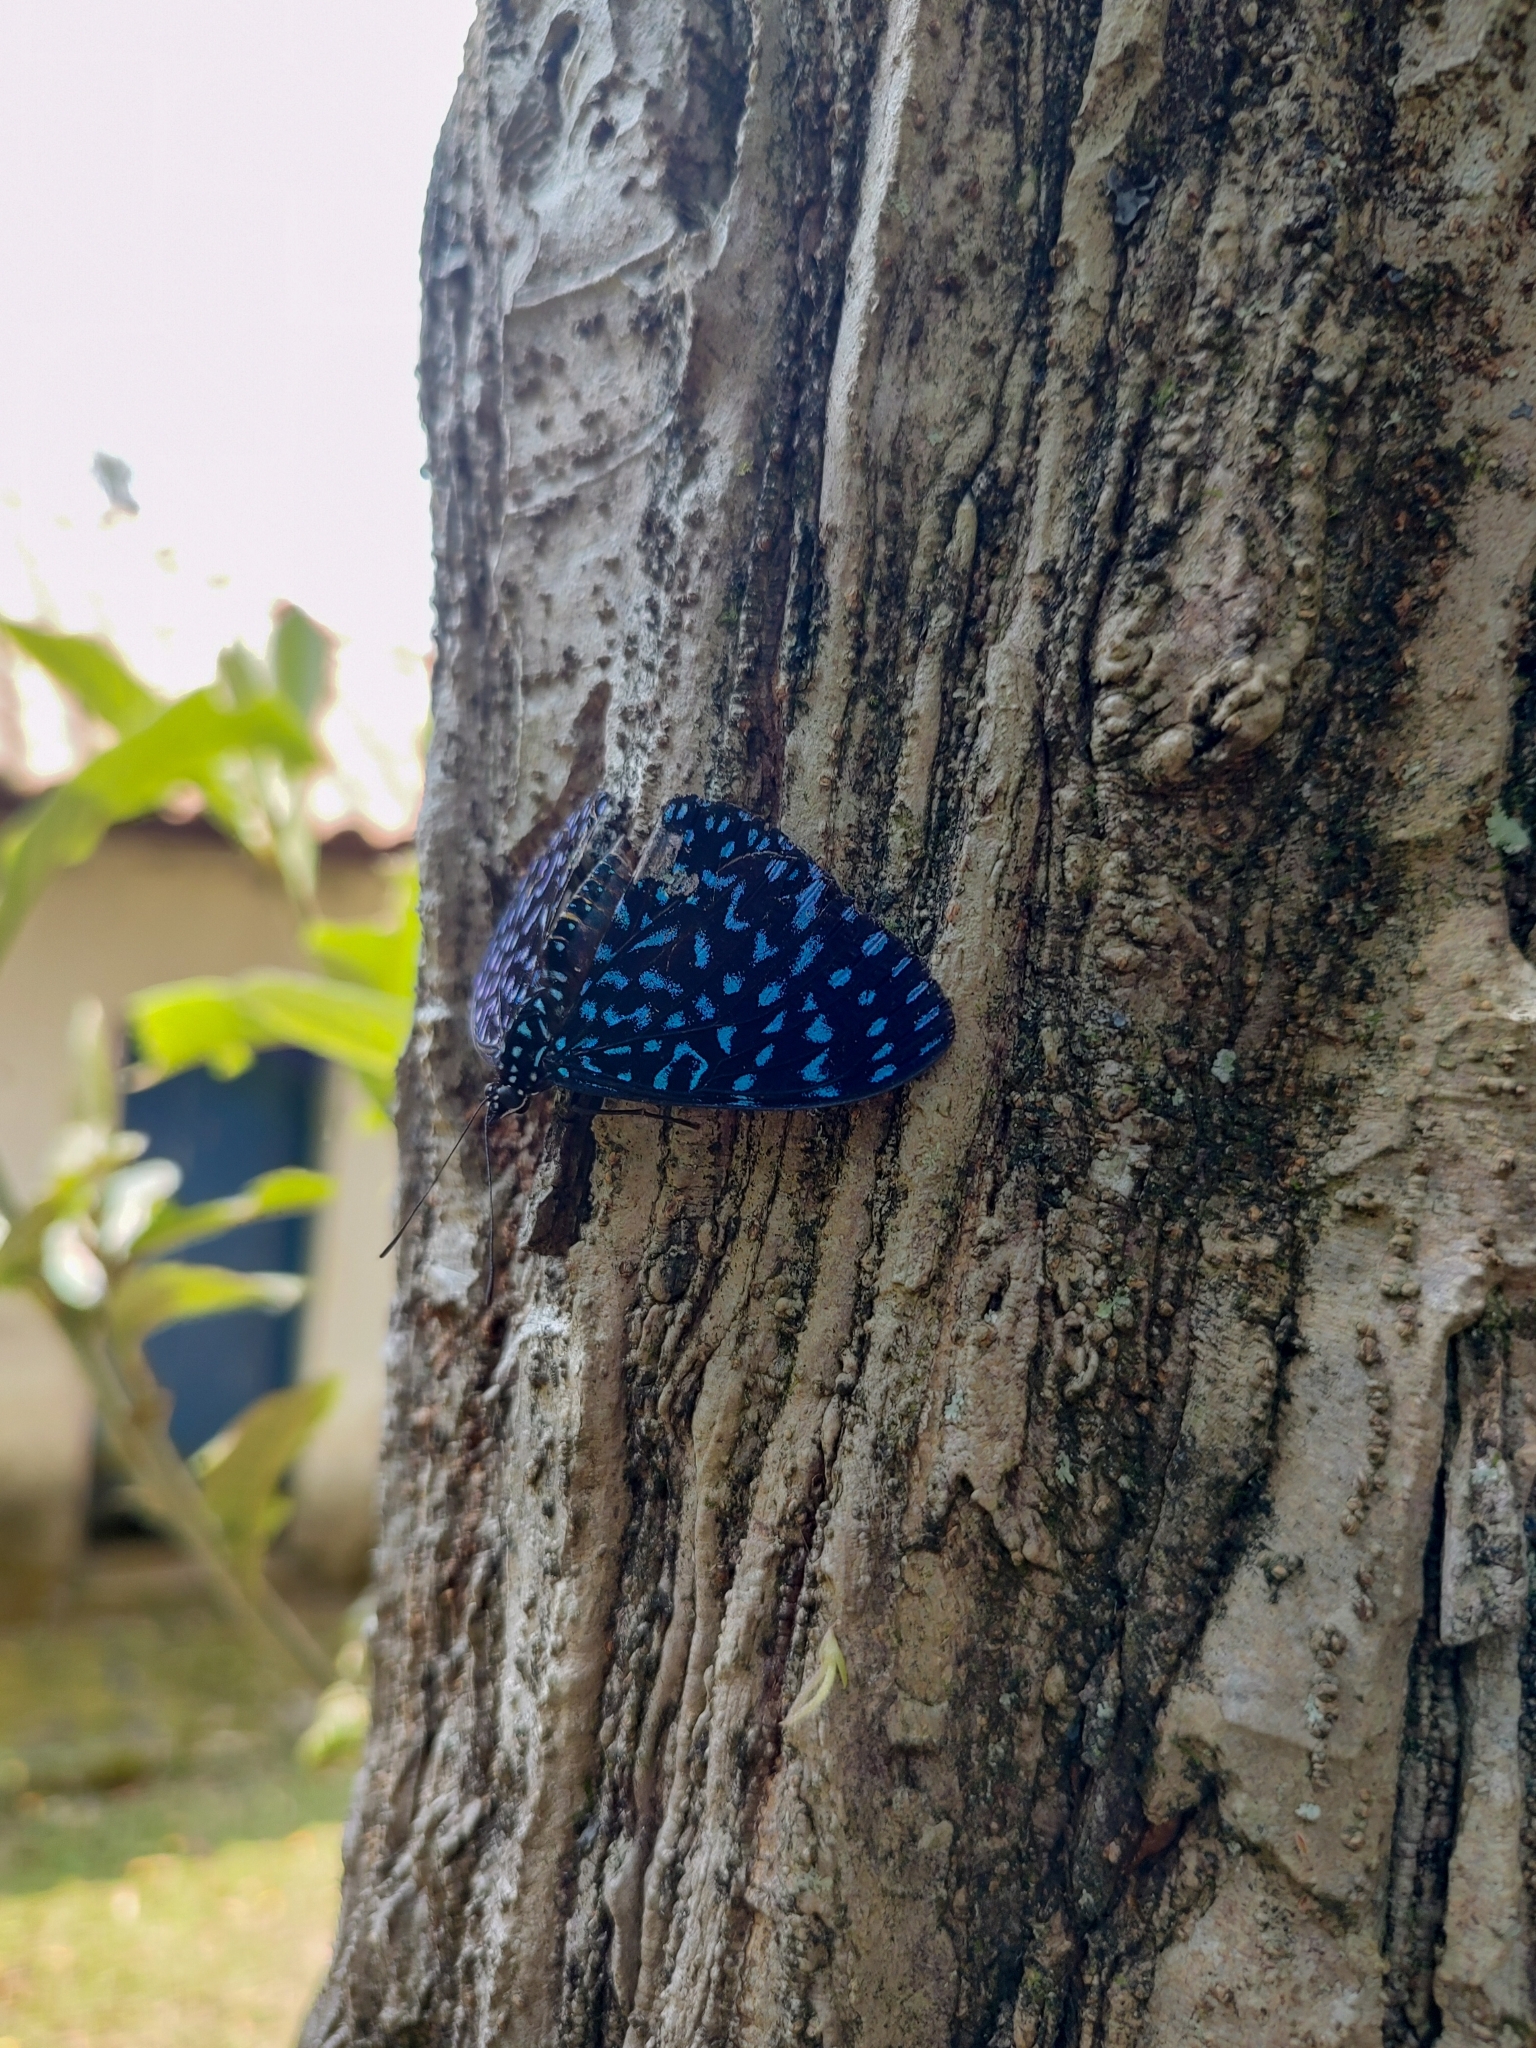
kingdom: Animalia
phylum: Arthropoda
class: Insecta
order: Lepidoptera
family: Nymphalidae
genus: Hamadryas
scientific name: Hamadryas arete
